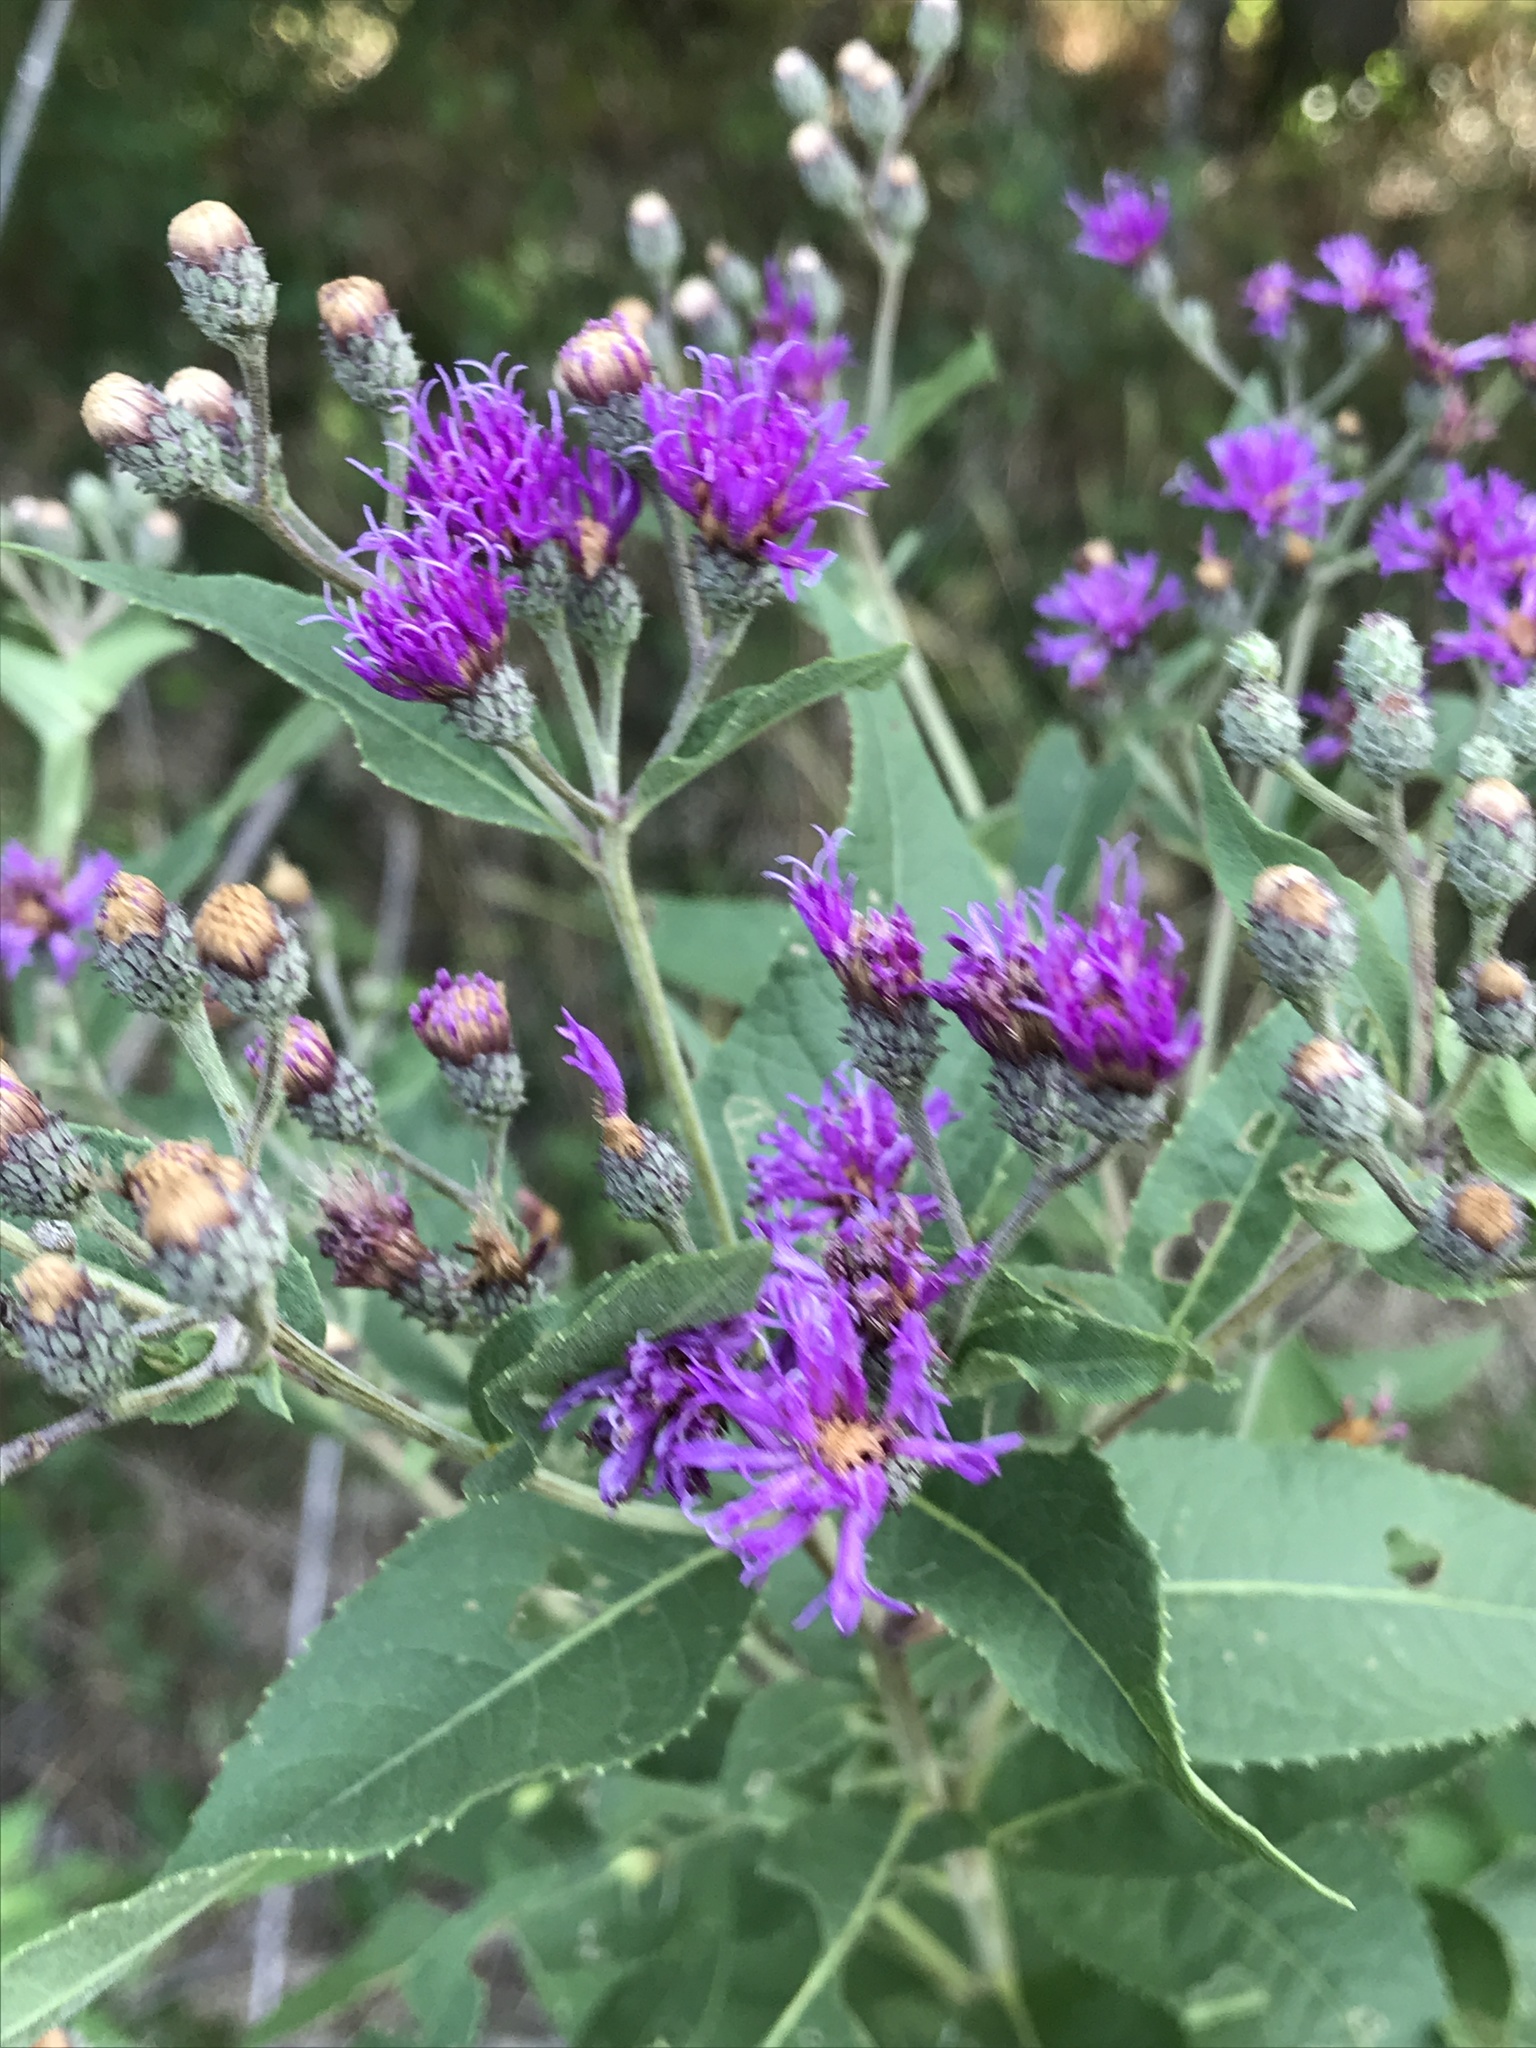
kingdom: Plantae
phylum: Tracheophyta
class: Magnoliopsida
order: Asterales
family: Asteraceae
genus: Vernonia
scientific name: Vernonia baldwinii
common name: Western ironweed
